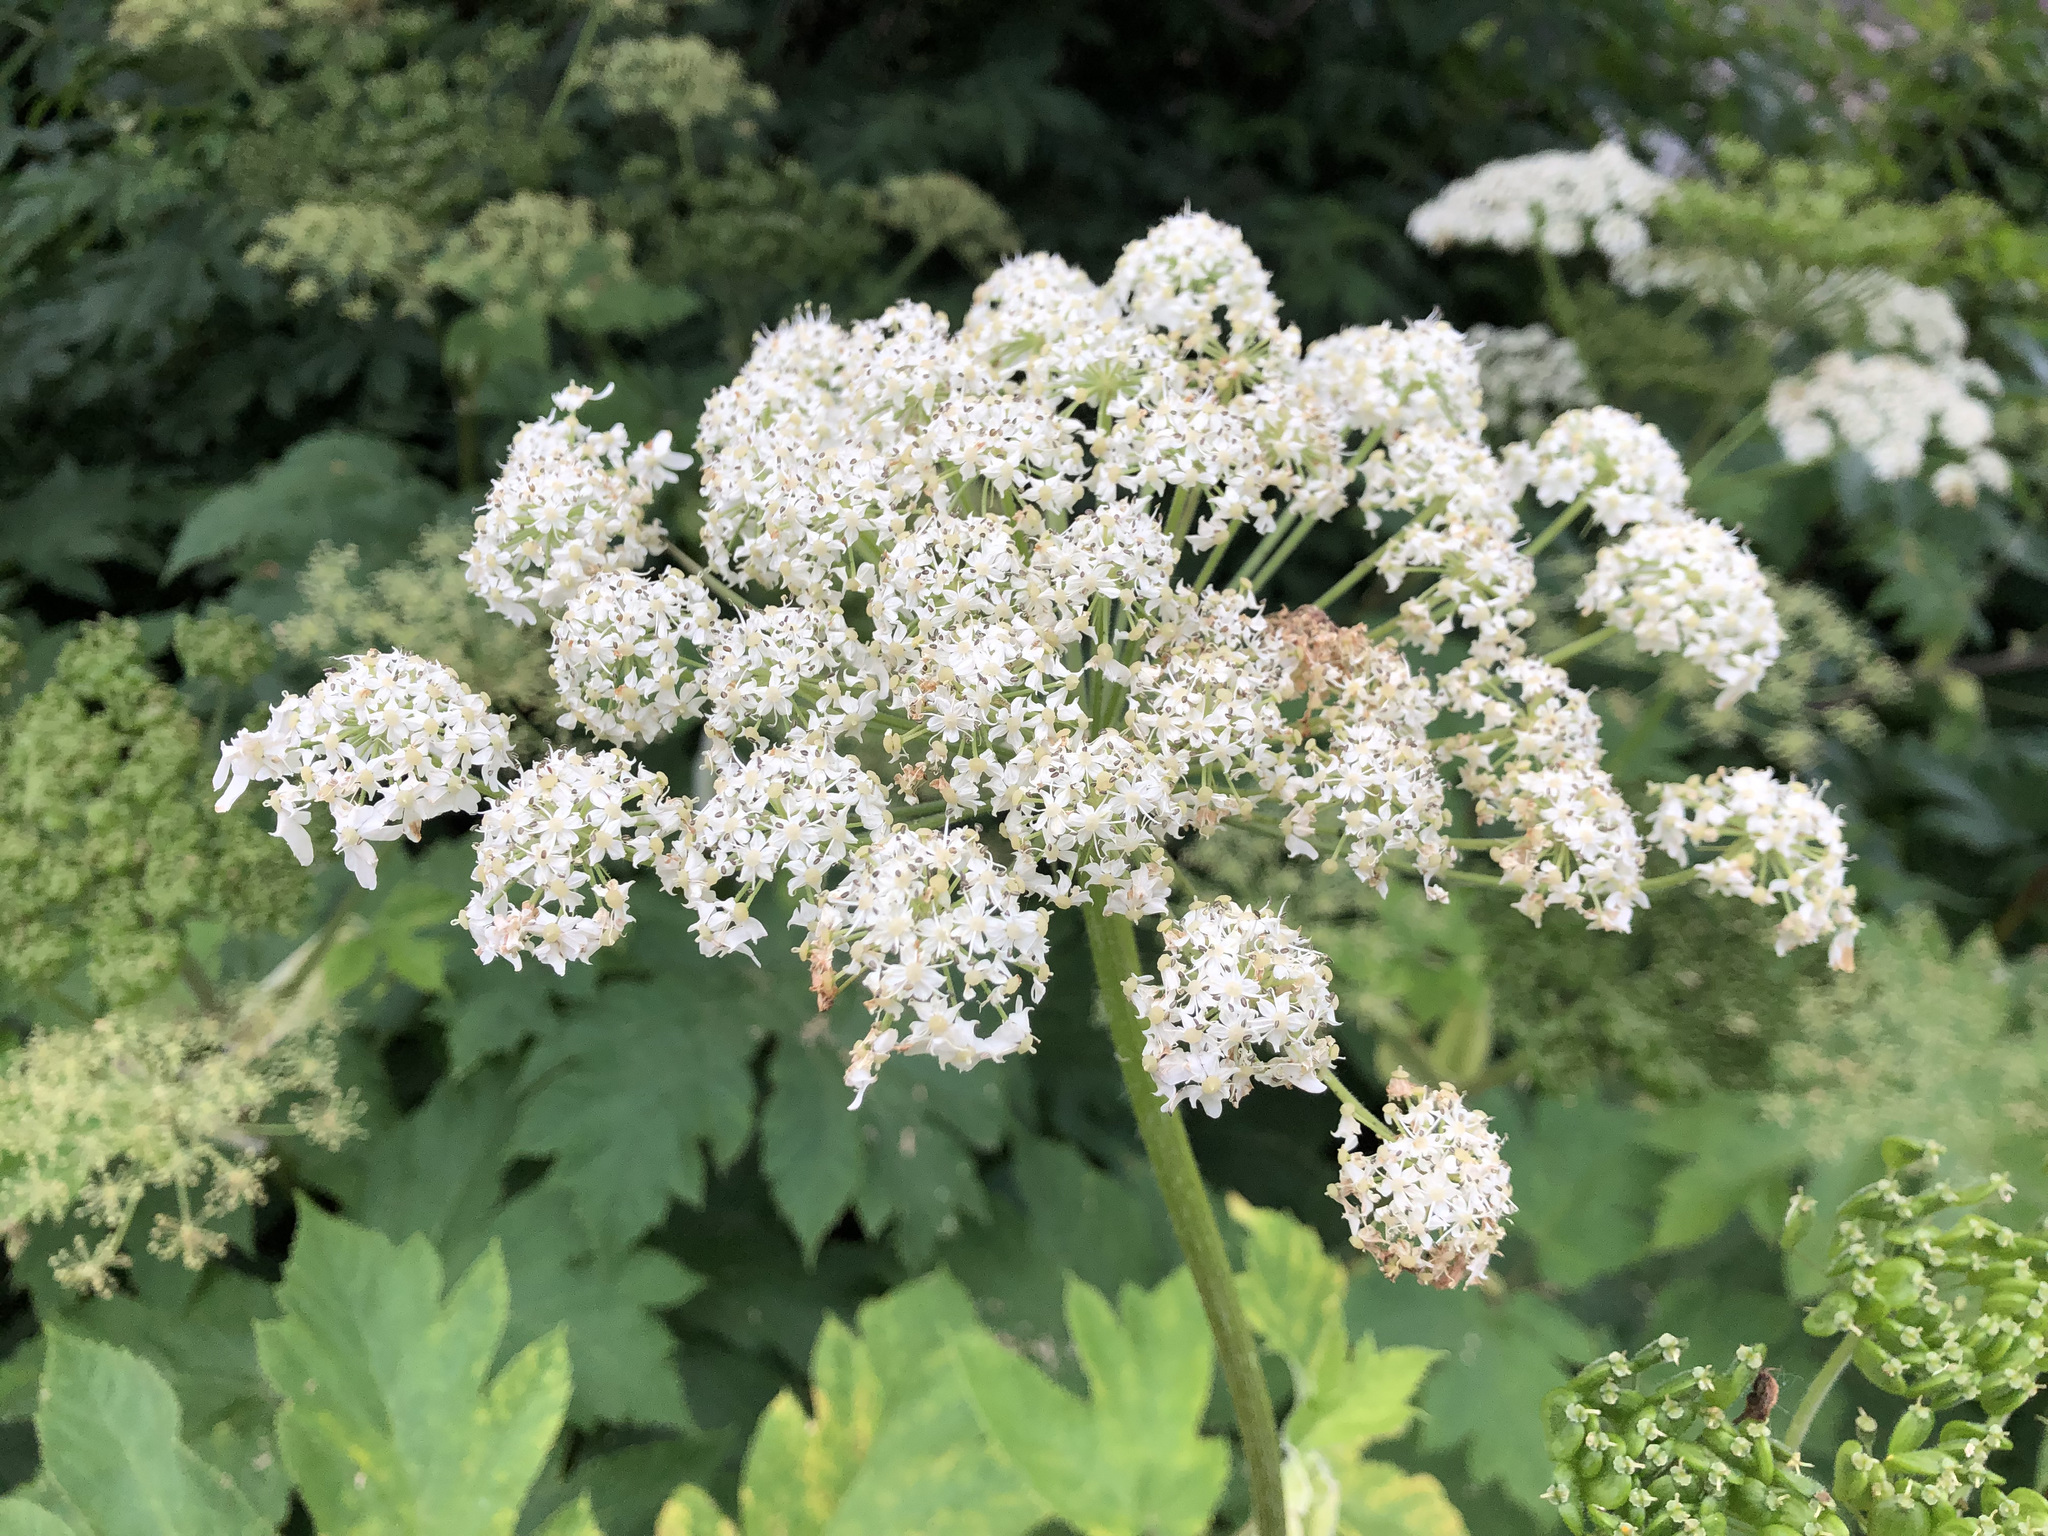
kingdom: Plantae
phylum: Tracheophyta
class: Magnoliopsida
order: Apiales
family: Apiaceae
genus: Heracleum
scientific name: Heracleum maximum
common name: American cow parsnip
